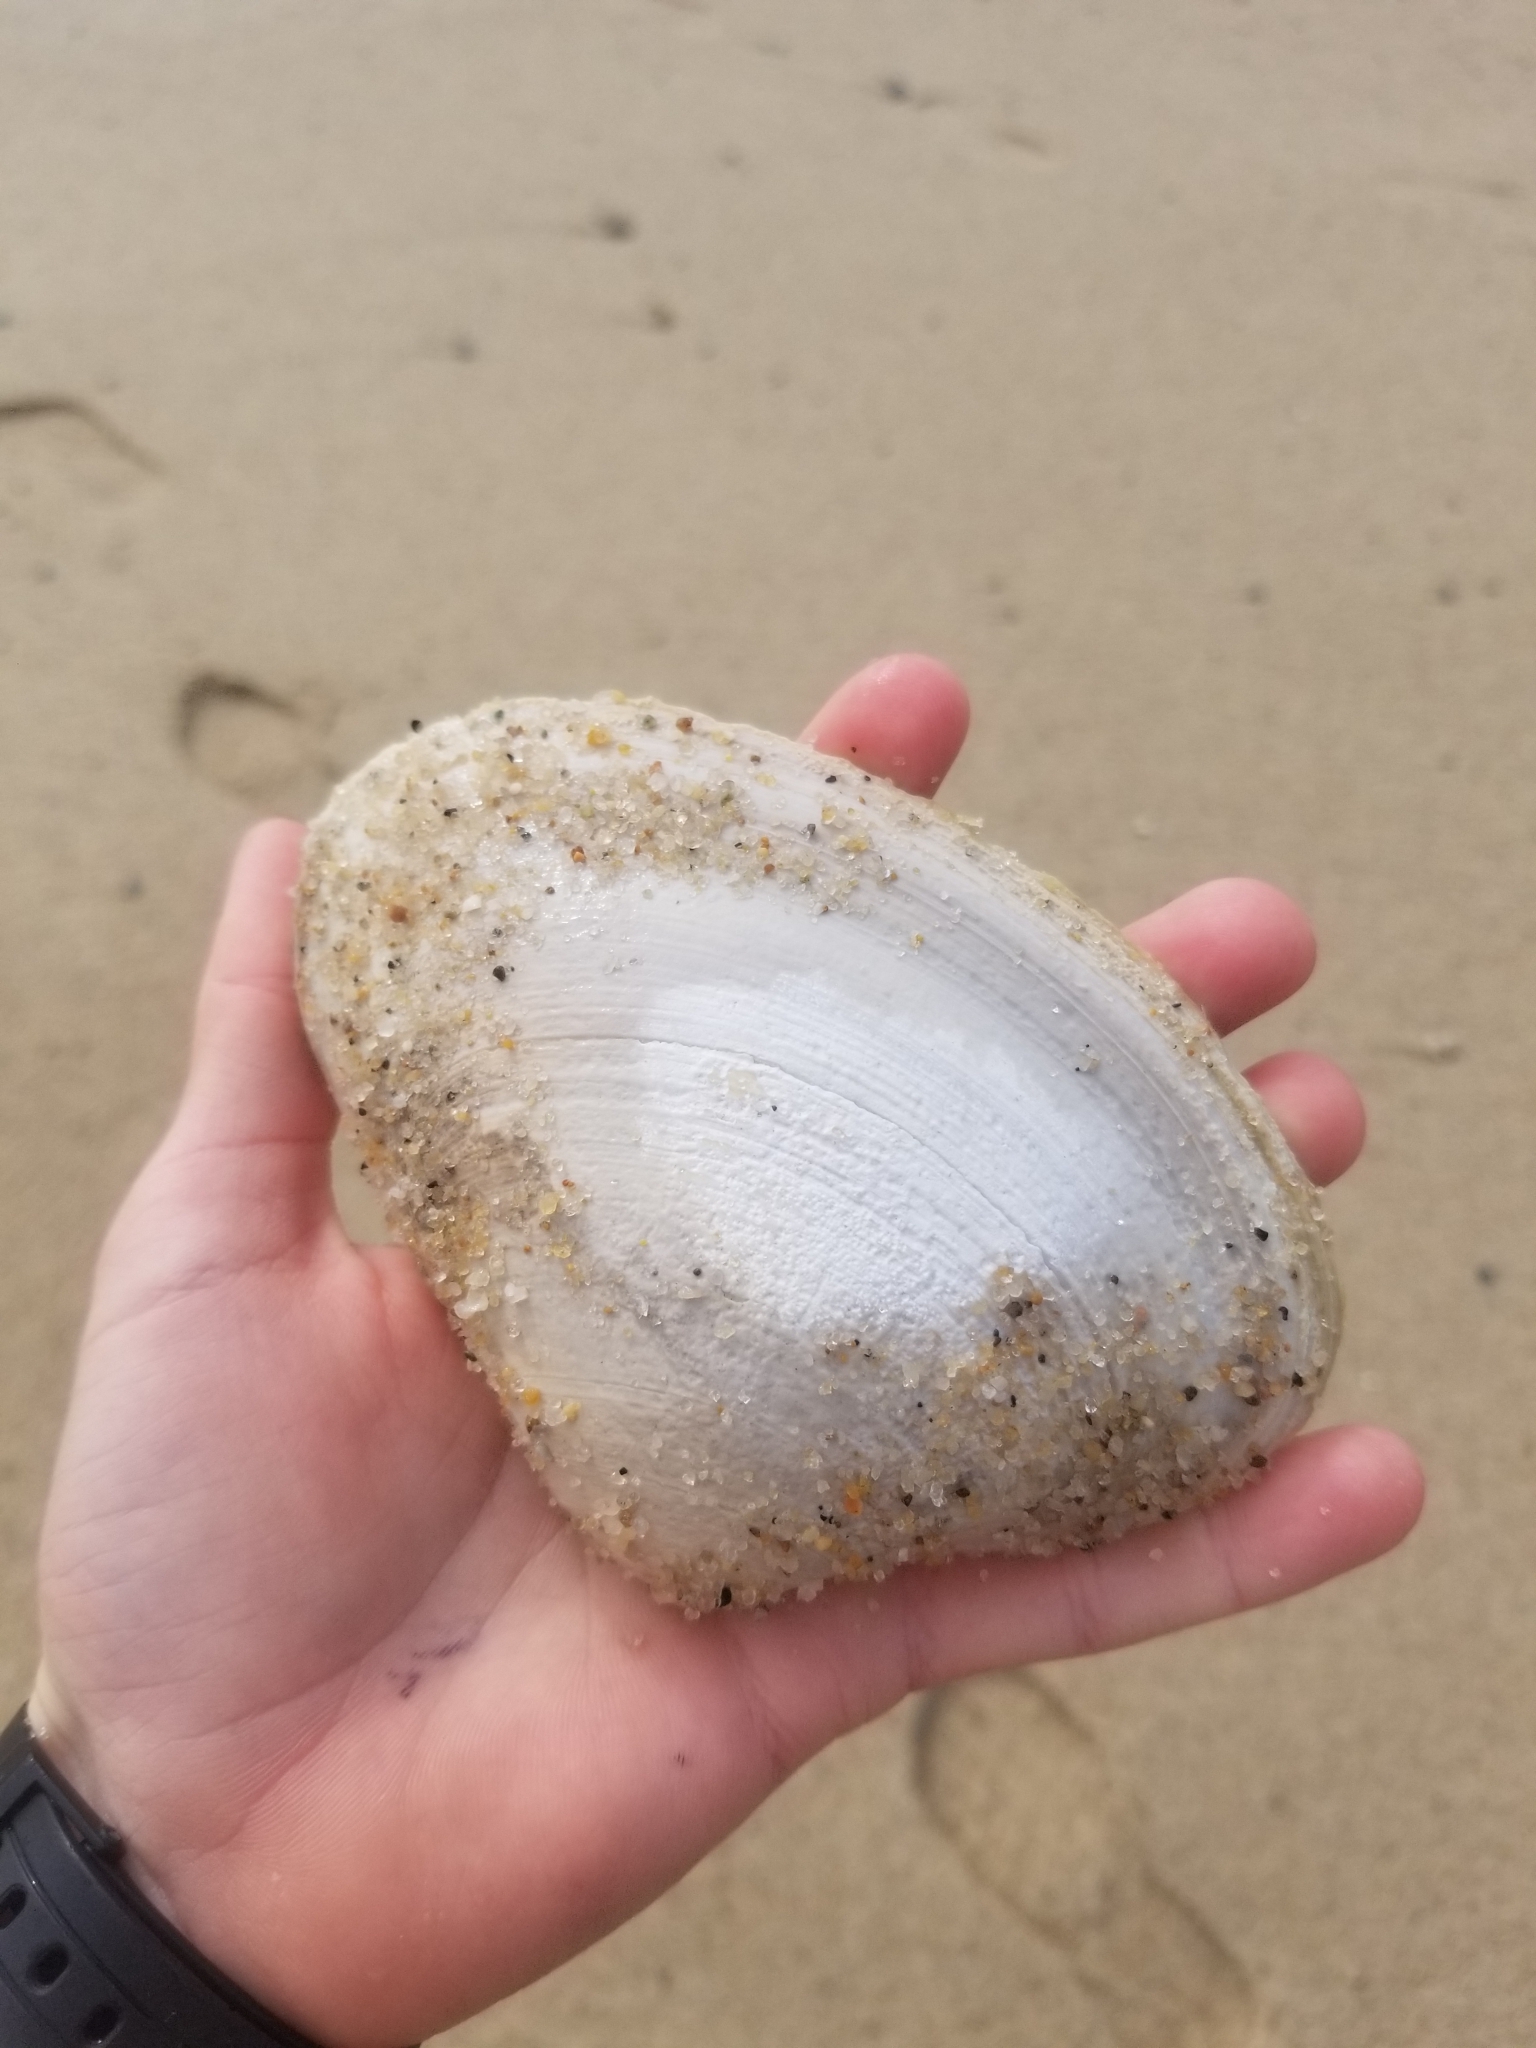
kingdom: Animalia
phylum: Mollusca
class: Bivalvia
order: Venerida
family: Mactridae
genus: Spisula
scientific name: Spisula solidissima
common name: Atlantic surf clam
